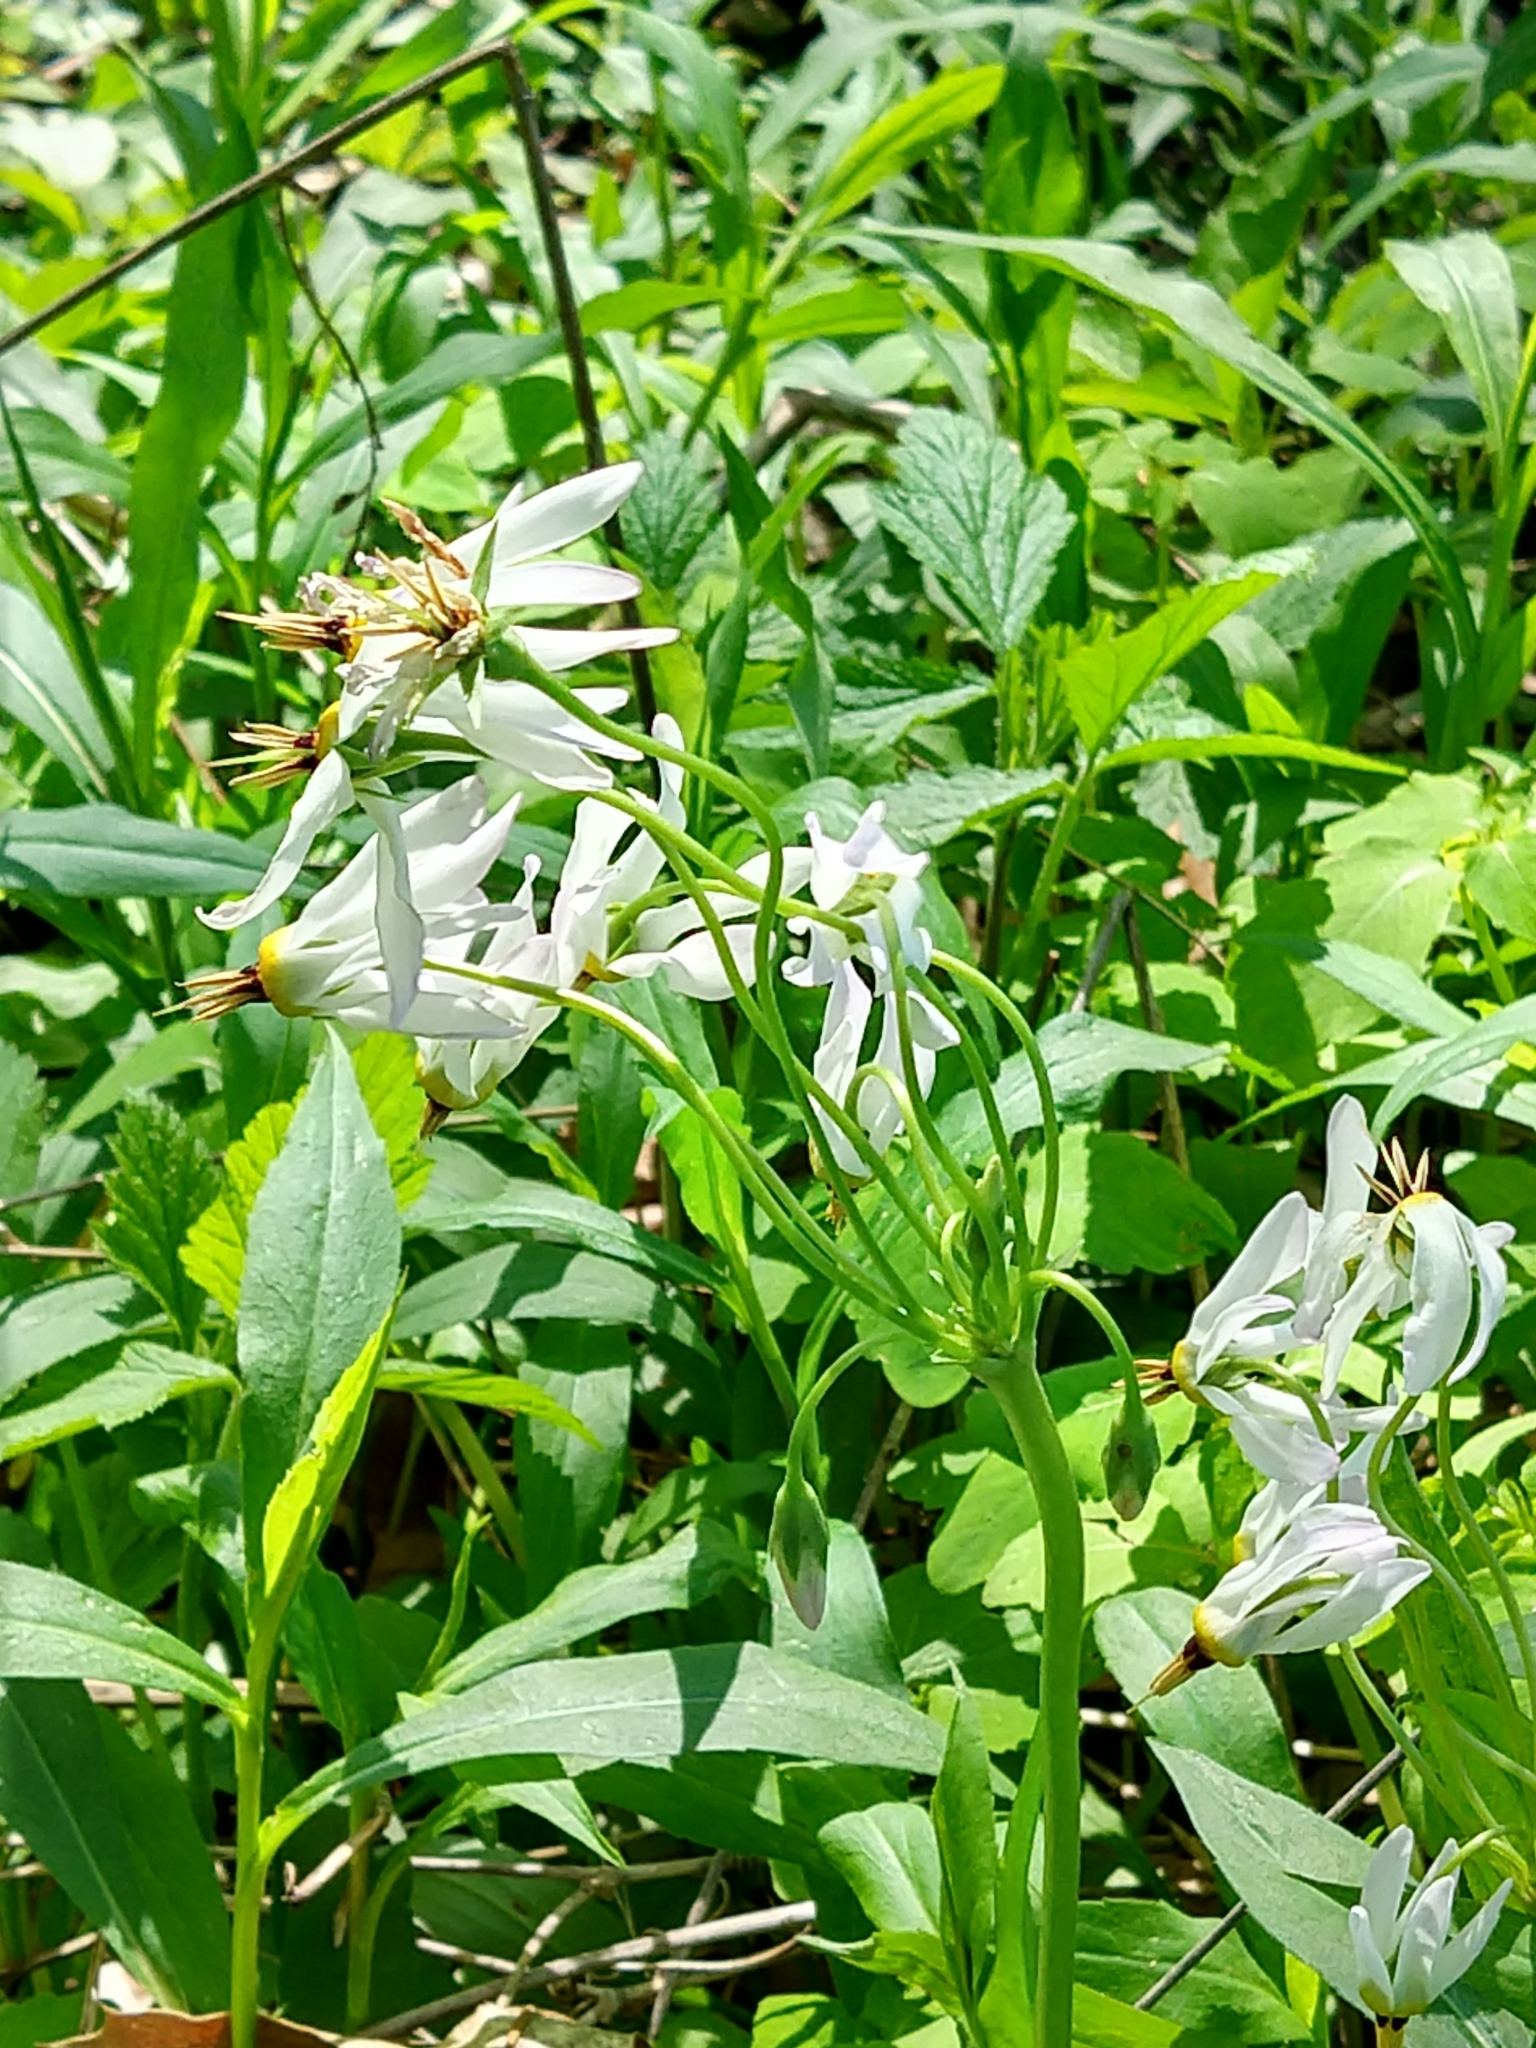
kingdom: Plantae
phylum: Tracheophyta
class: Magnoliopsida
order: Ericales
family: Primulaceae
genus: Dodecatheon
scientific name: Dodecatheon meadia
